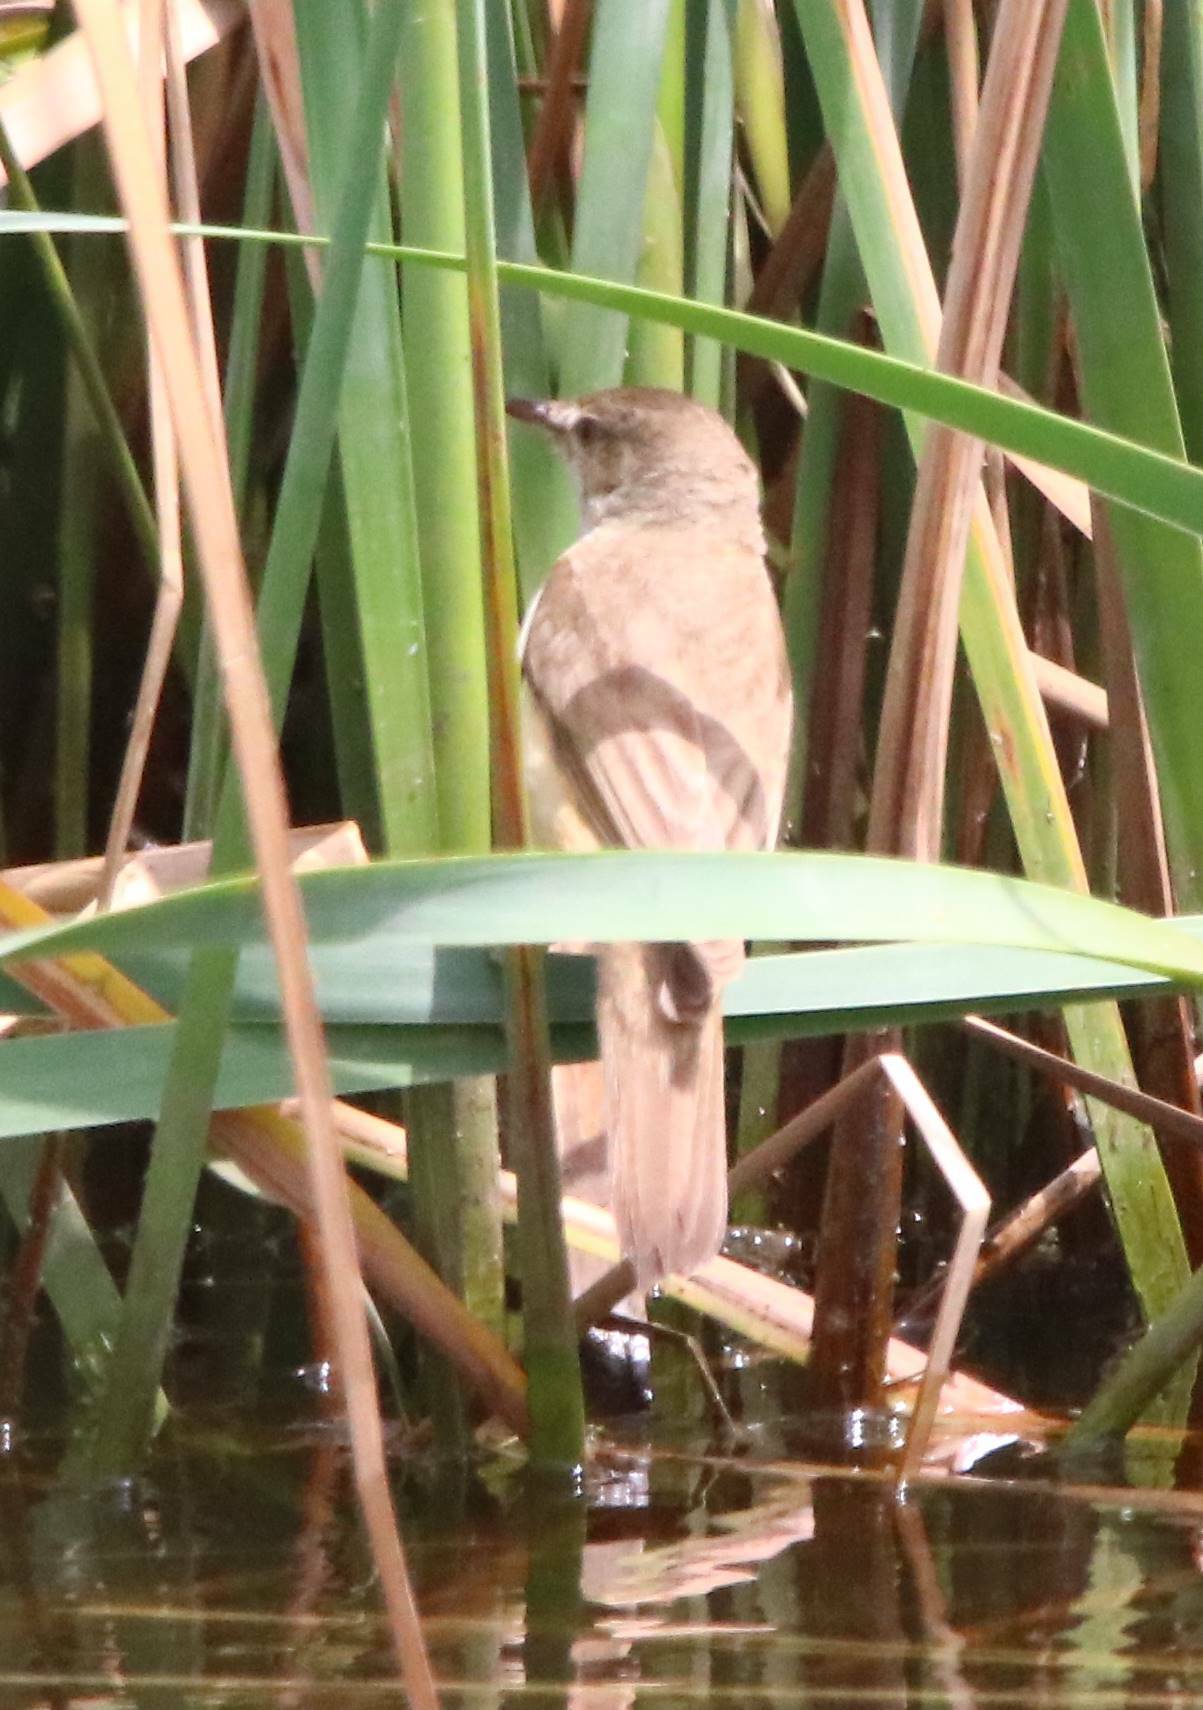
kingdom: Animalia
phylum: Chordata
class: Aves
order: Passeriformes
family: Acrocephalidae
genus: Acrocephalus
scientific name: Acrocephalus arundinaceus
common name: Great reed warbler
